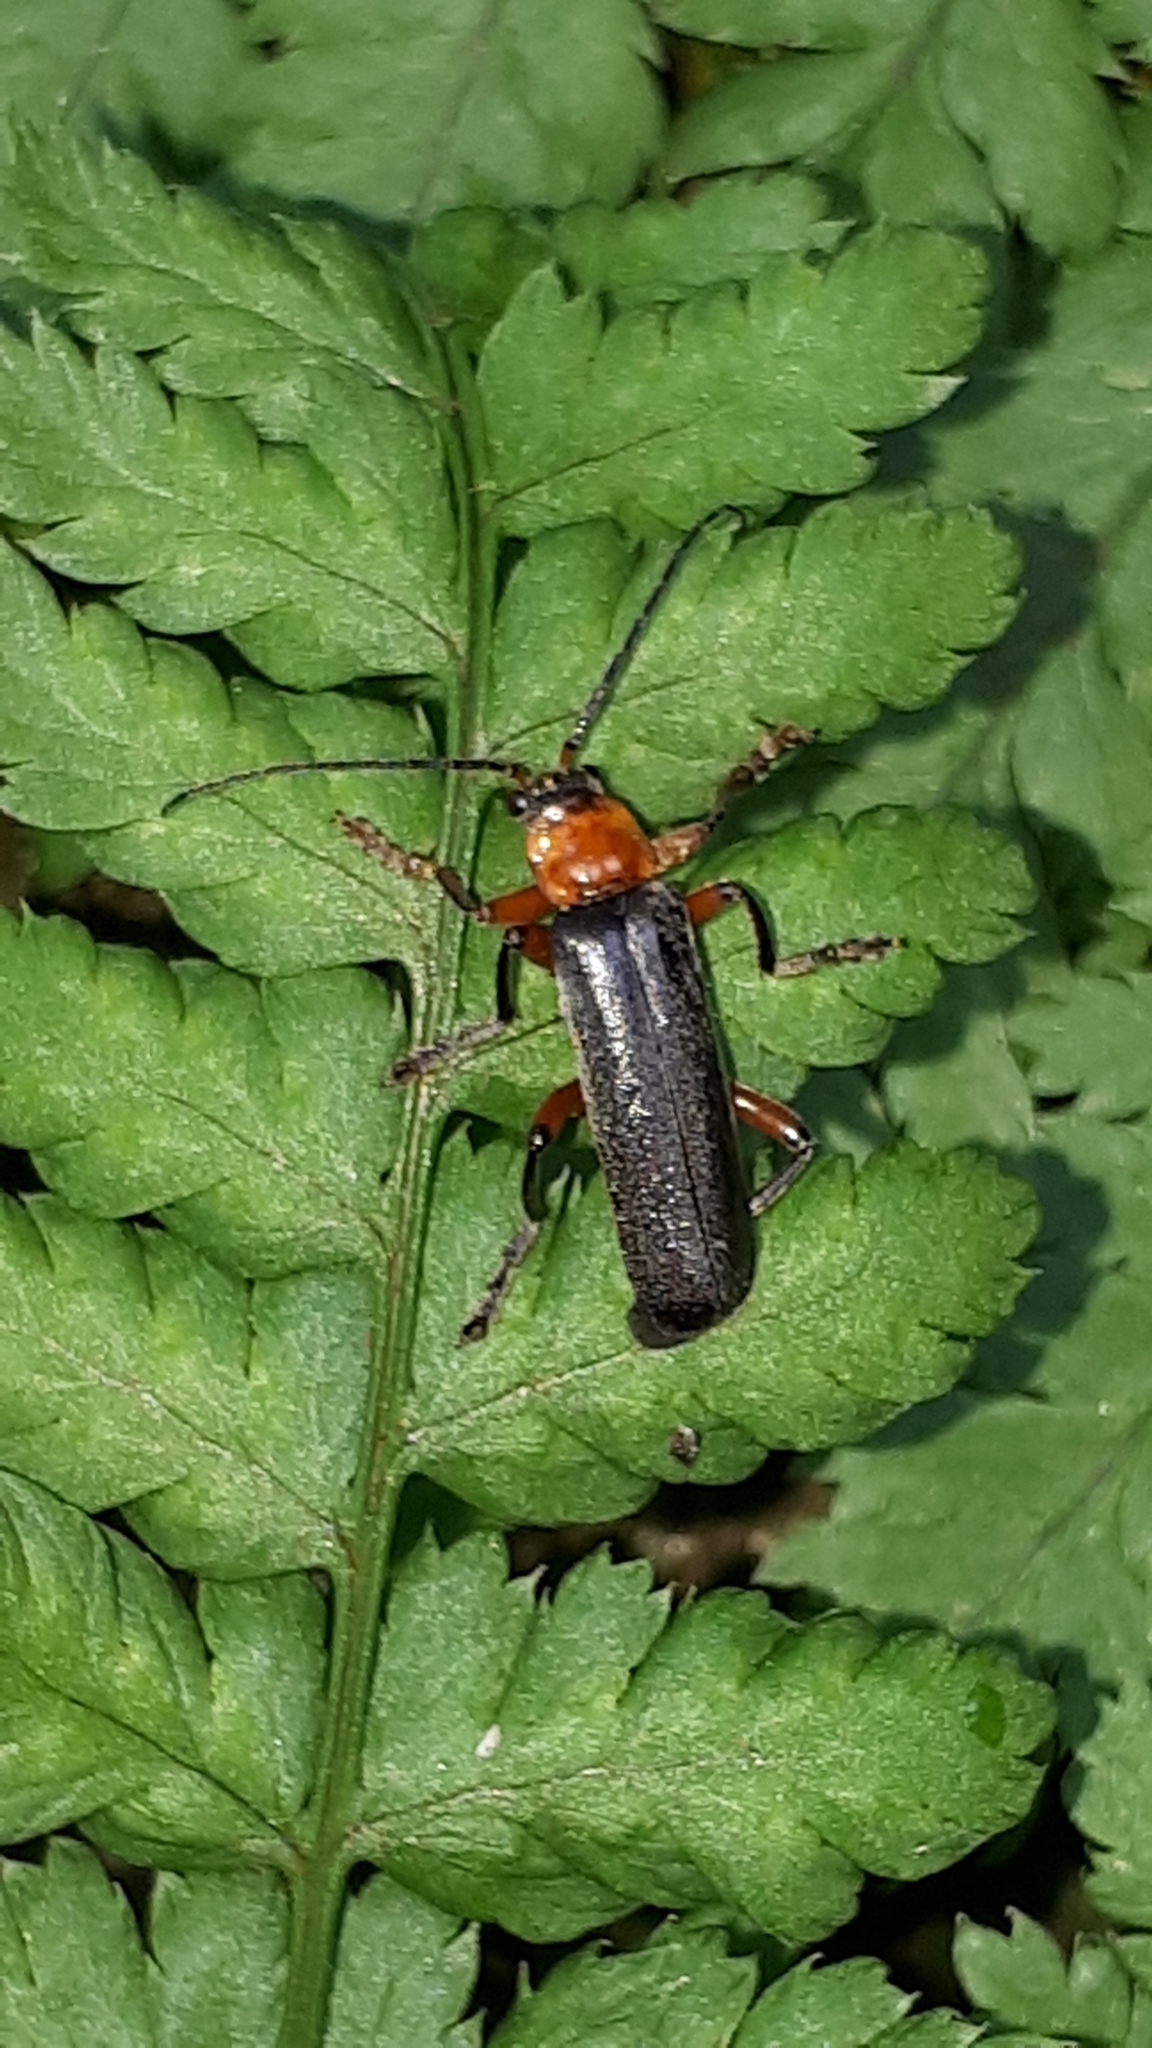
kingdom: Animalia
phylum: Arthropoda
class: Insecta
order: Coleoptera
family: Cantharidae
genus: Cantharis
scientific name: Cantharis pellucida
